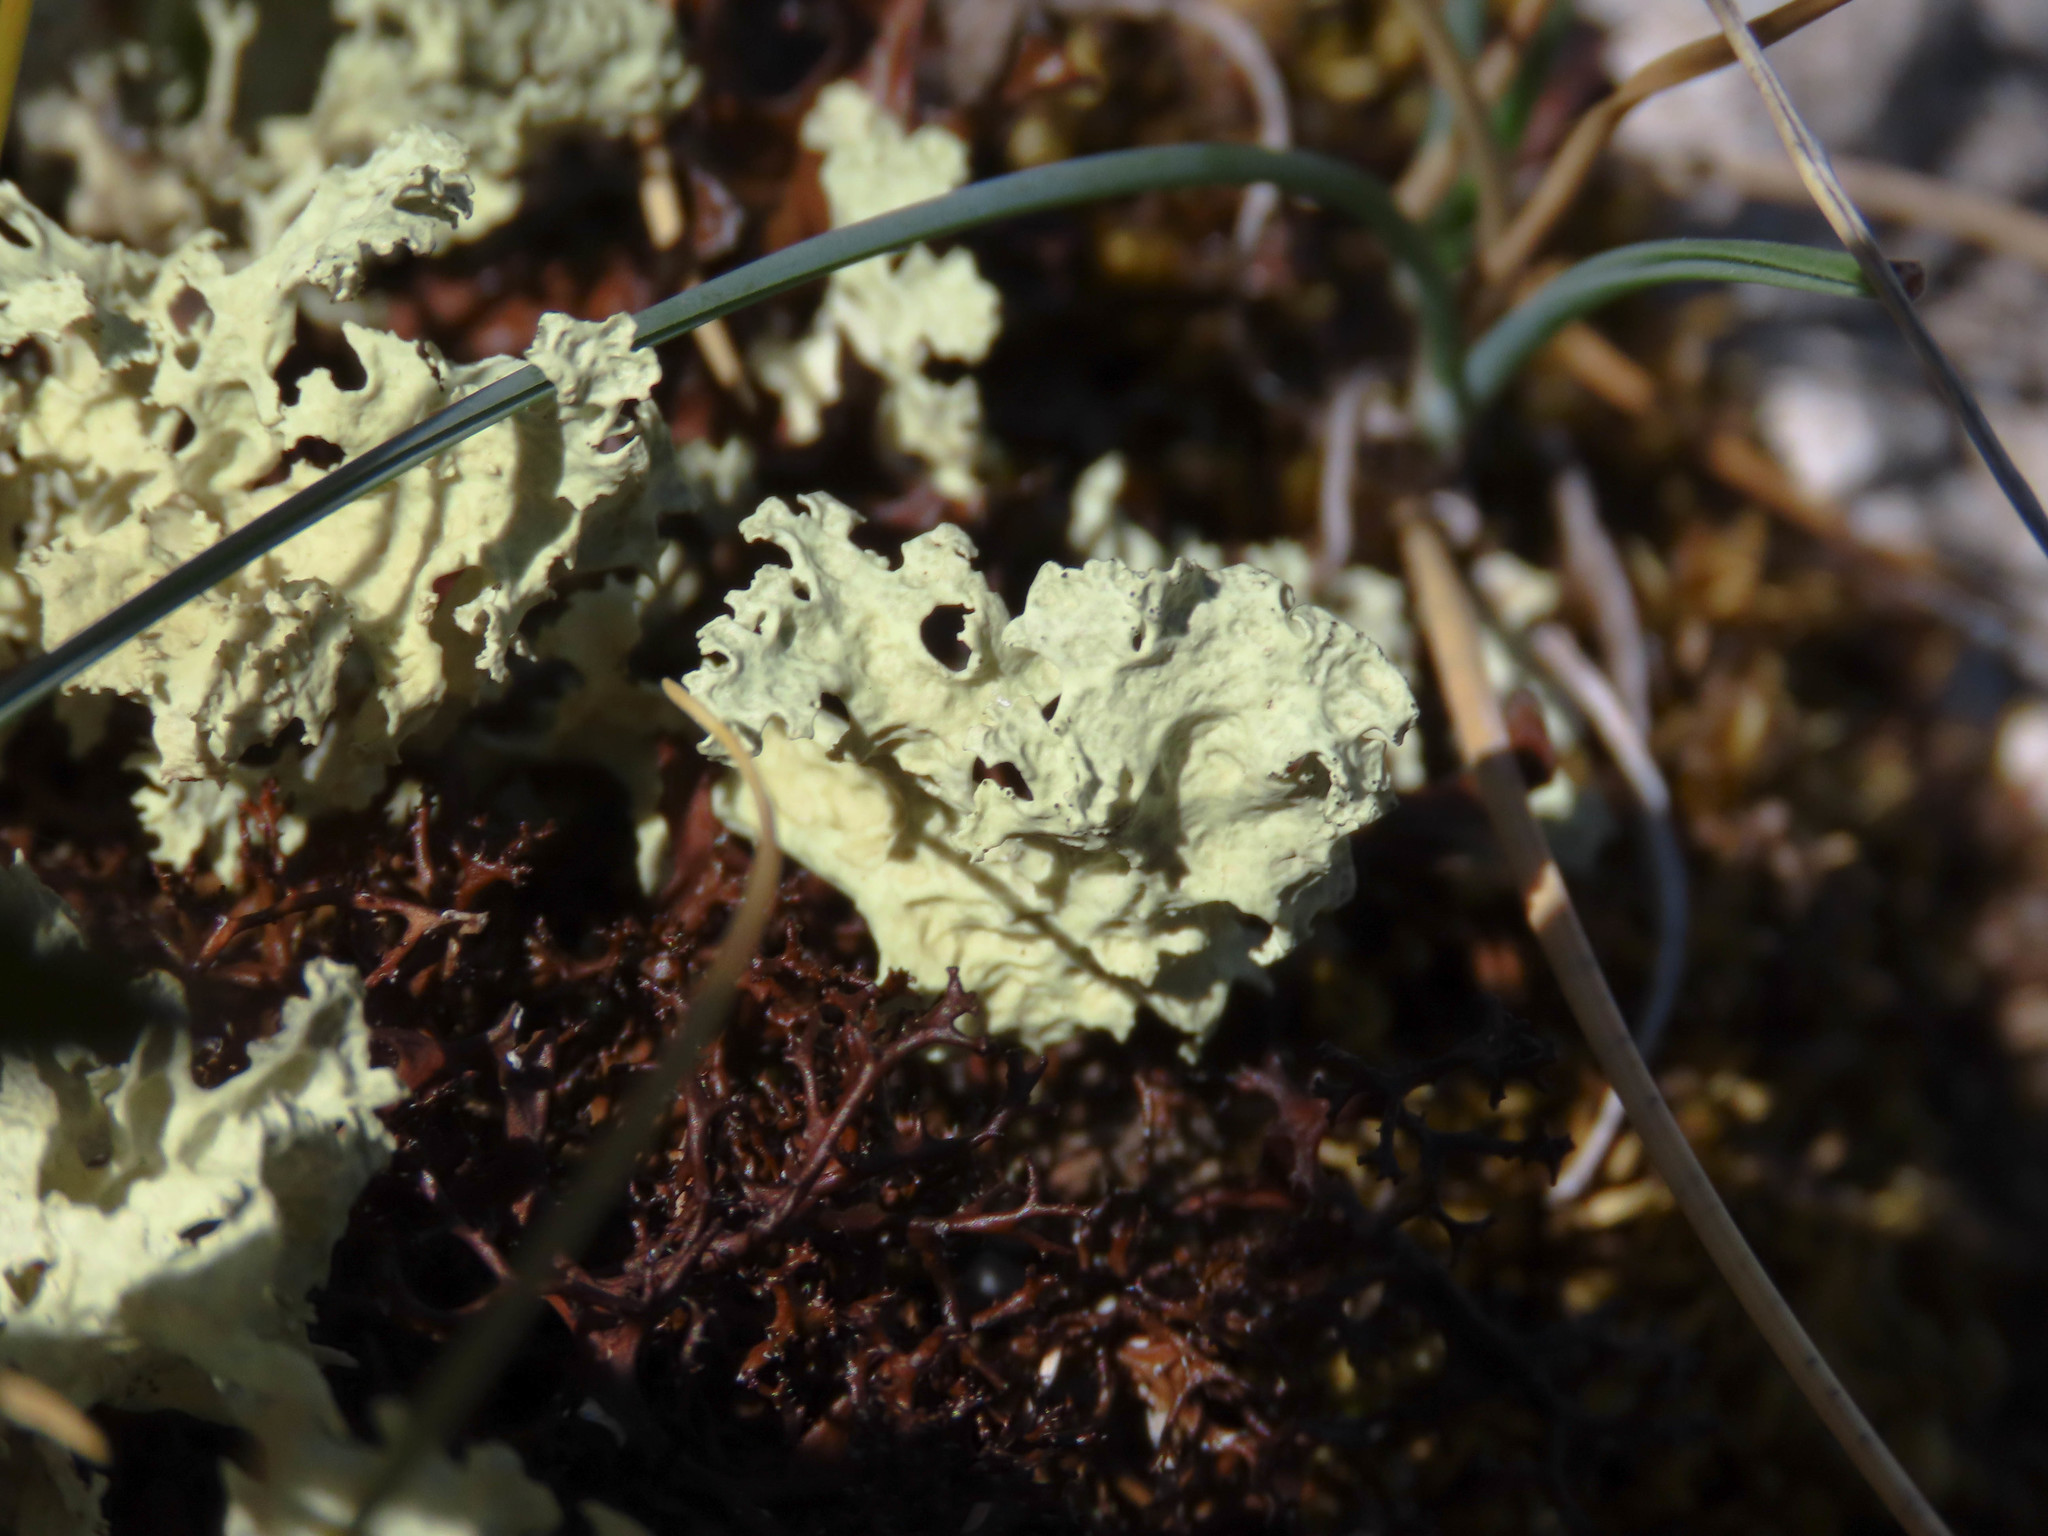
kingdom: Fungi
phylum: Ascomycota
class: Lecanoromycetes
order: Lecanorales
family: Parmeliaceae
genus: Nephromopsis
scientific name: Nephromopsis nivalis
